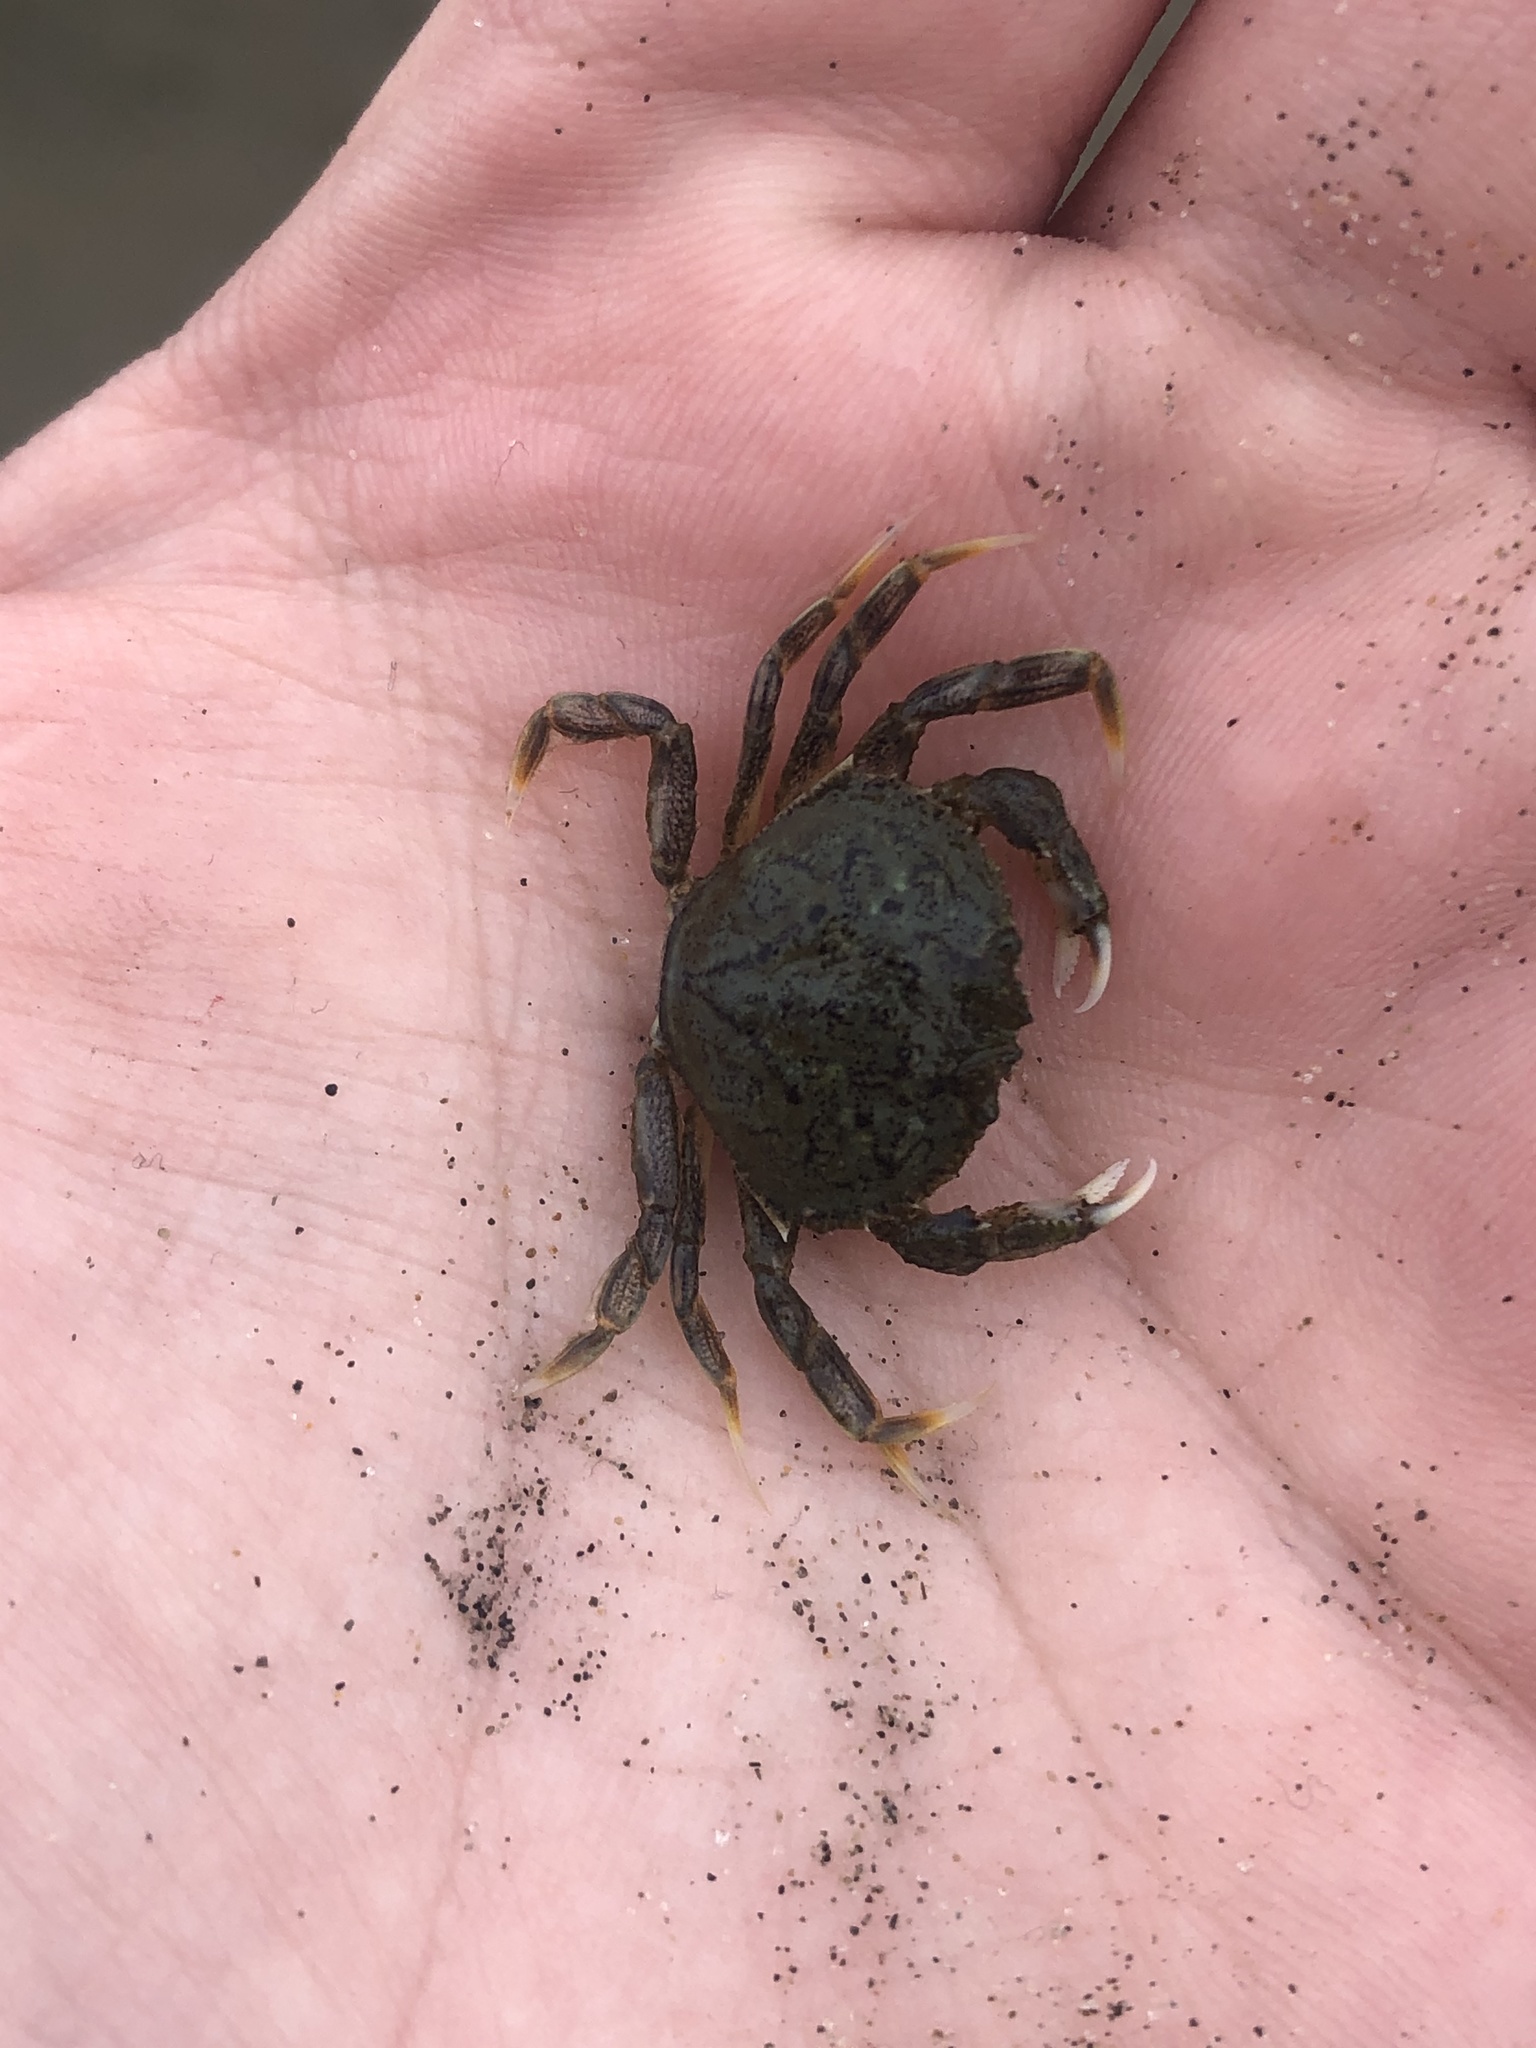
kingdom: Animalia
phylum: Arthropoda
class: Malacostraca
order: Decapoda
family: Cancridae
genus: Metacarcinus
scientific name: Metacarcinus magister
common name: Californian crab
